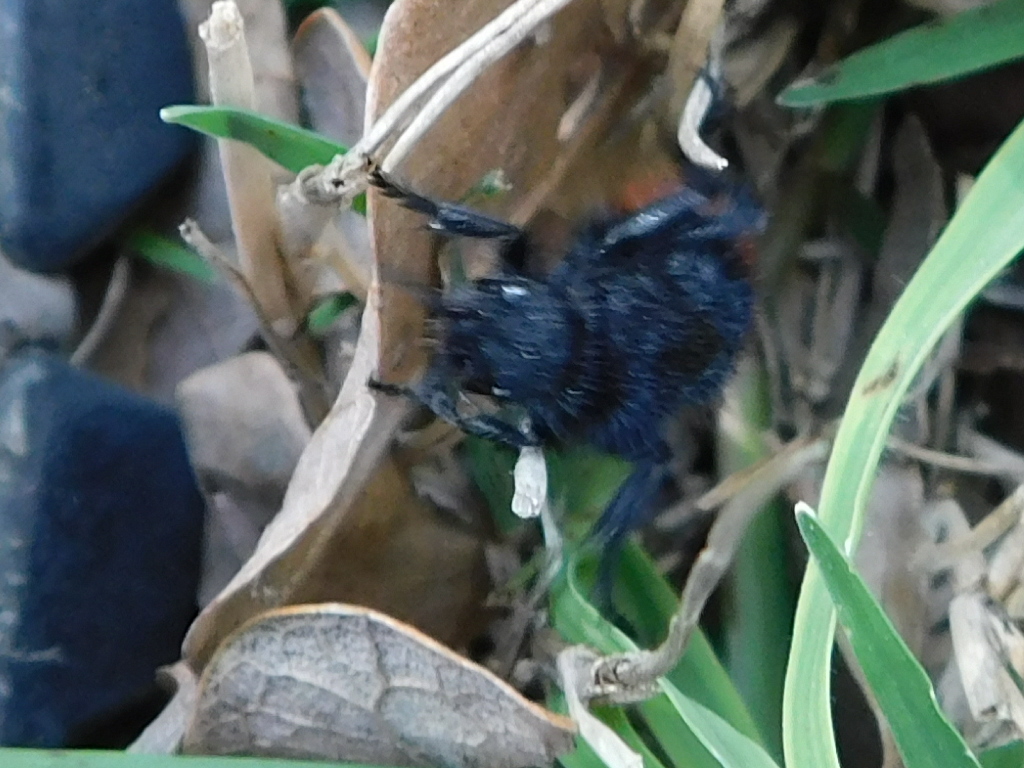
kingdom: Animalia
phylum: Arthropoda
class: Insecta
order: Hymenoptera
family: Mutillidae
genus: Dasymutilla
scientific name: Dasymutilla
